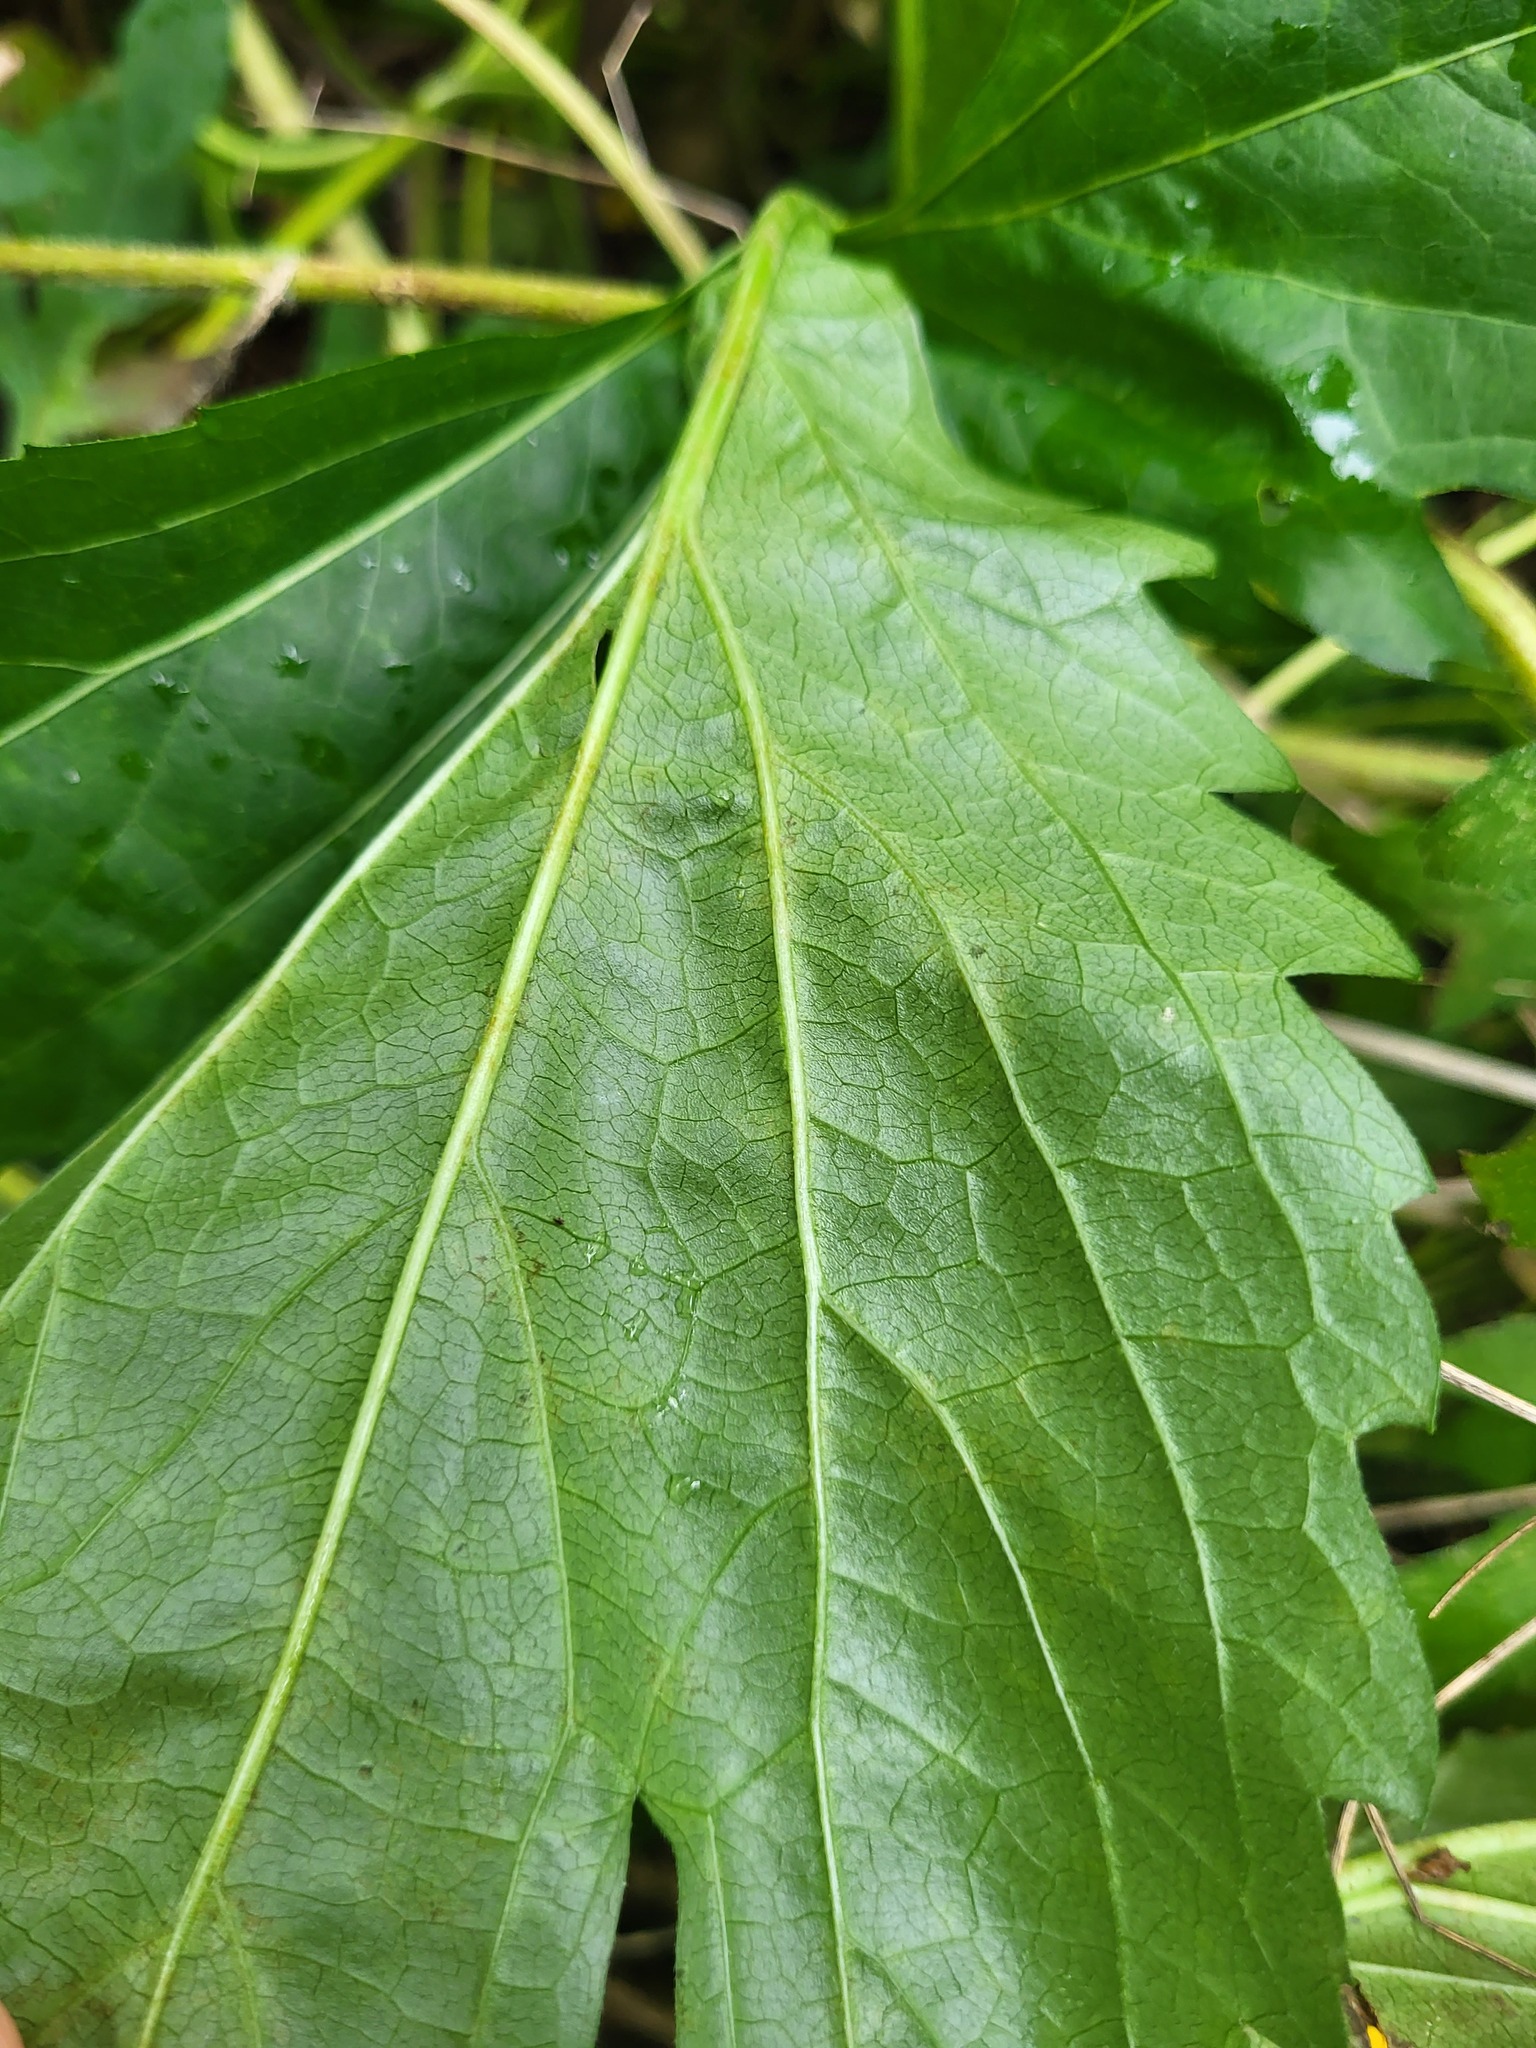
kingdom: Plantae
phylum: Tracheophyta
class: Magnoliopsida
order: Asterales
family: Asteraceae
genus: Rudbeckia
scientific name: Rudbeckia laciniata
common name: Coneflower
